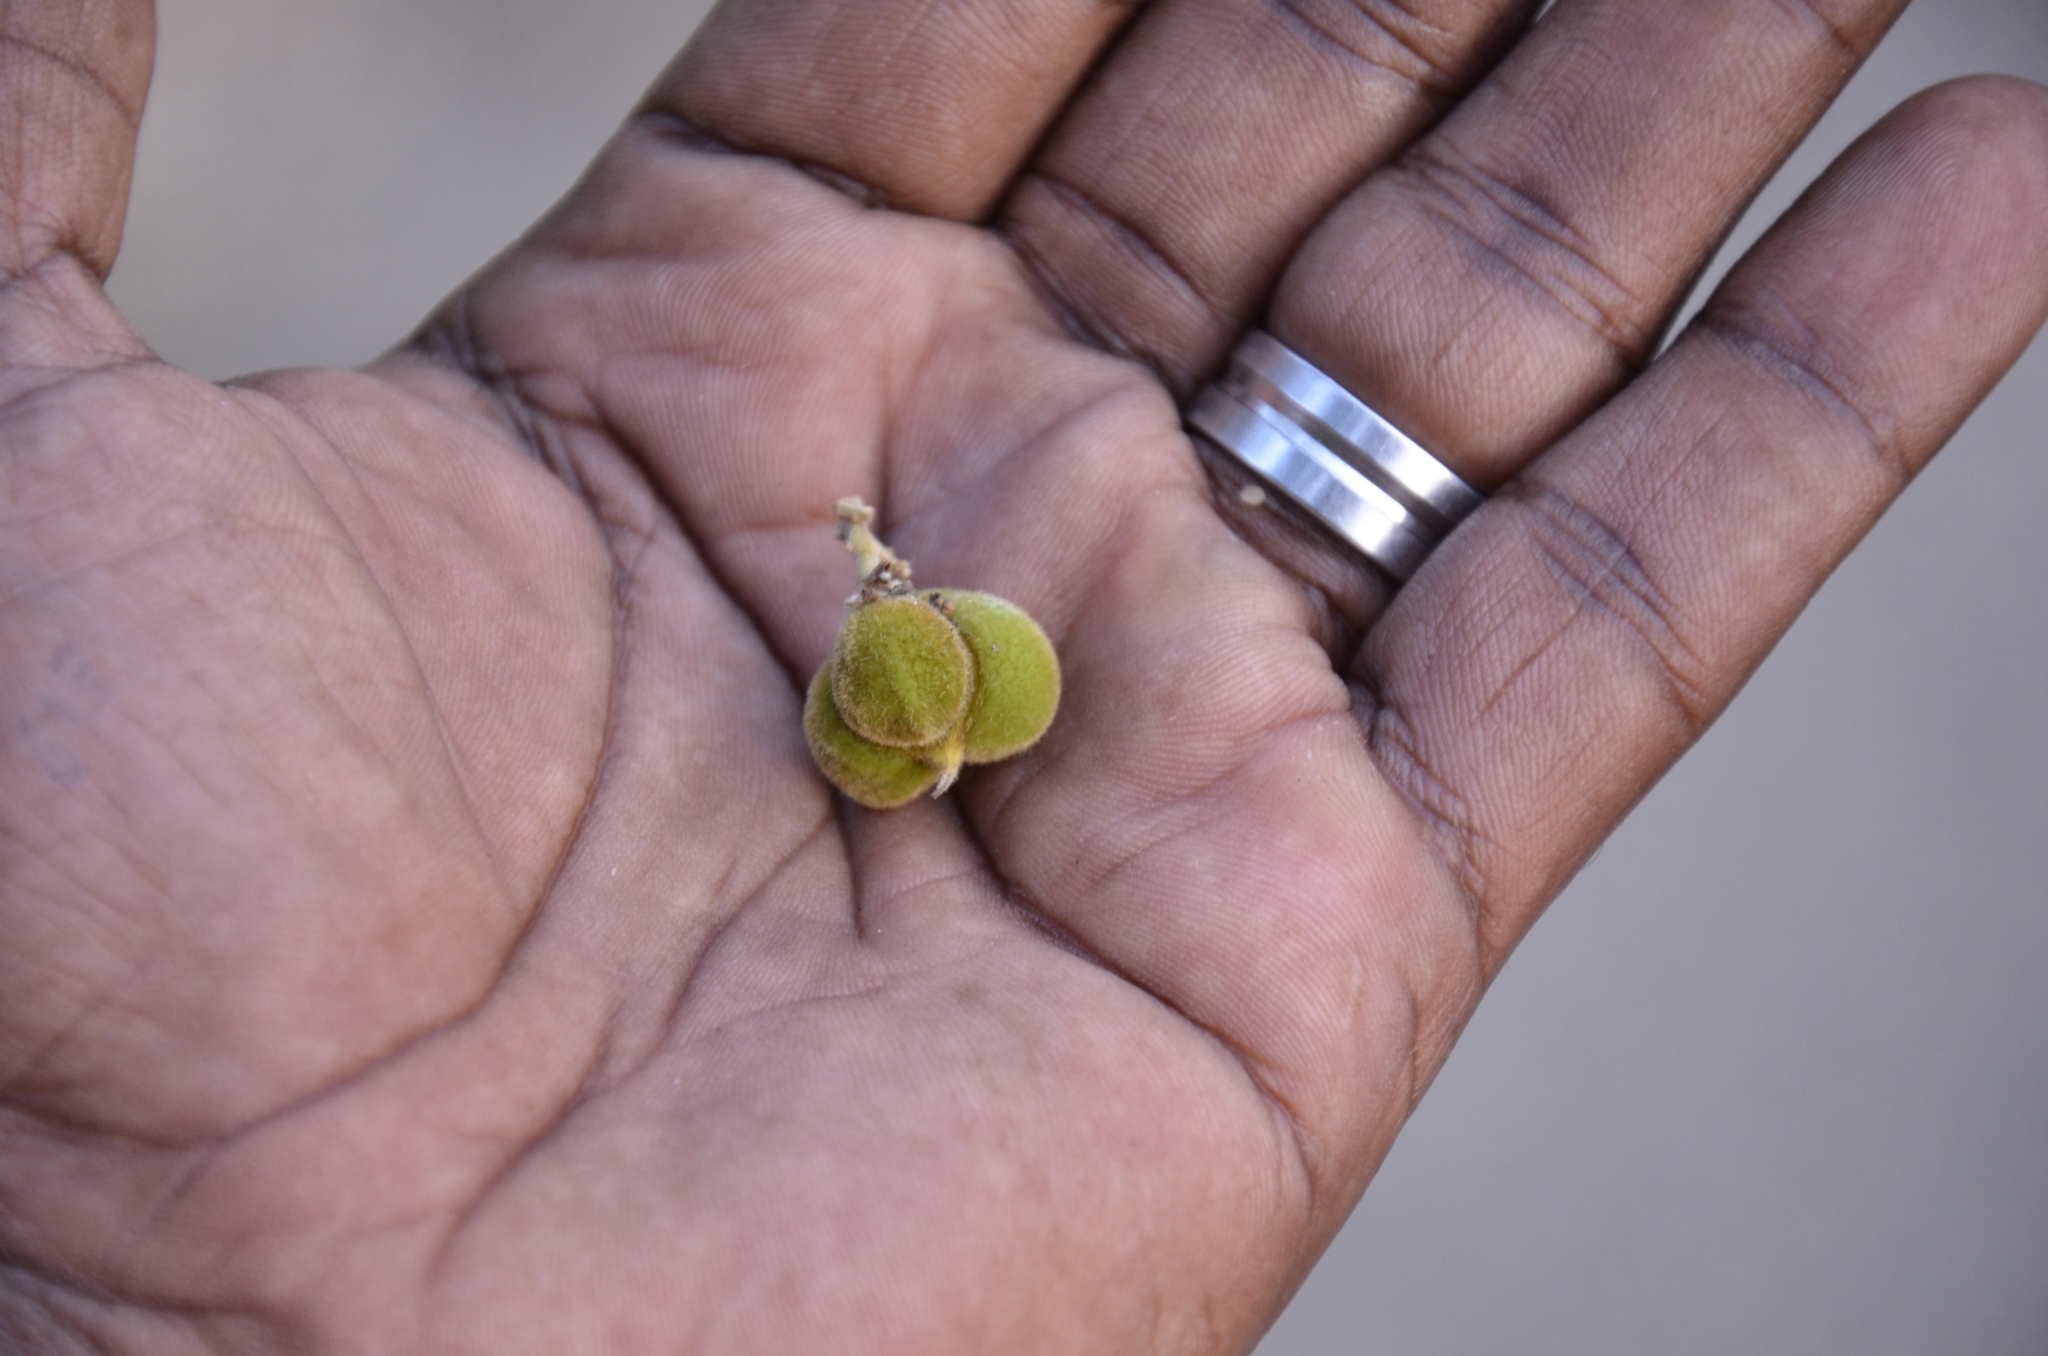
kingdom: Plantae
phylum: Tracheophyta
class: Magnoliopsida
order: Sapindales
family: Sapindaceae
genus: Sapindus
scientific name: Sapindus trifoliatus
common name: Three-leaf soapberry
